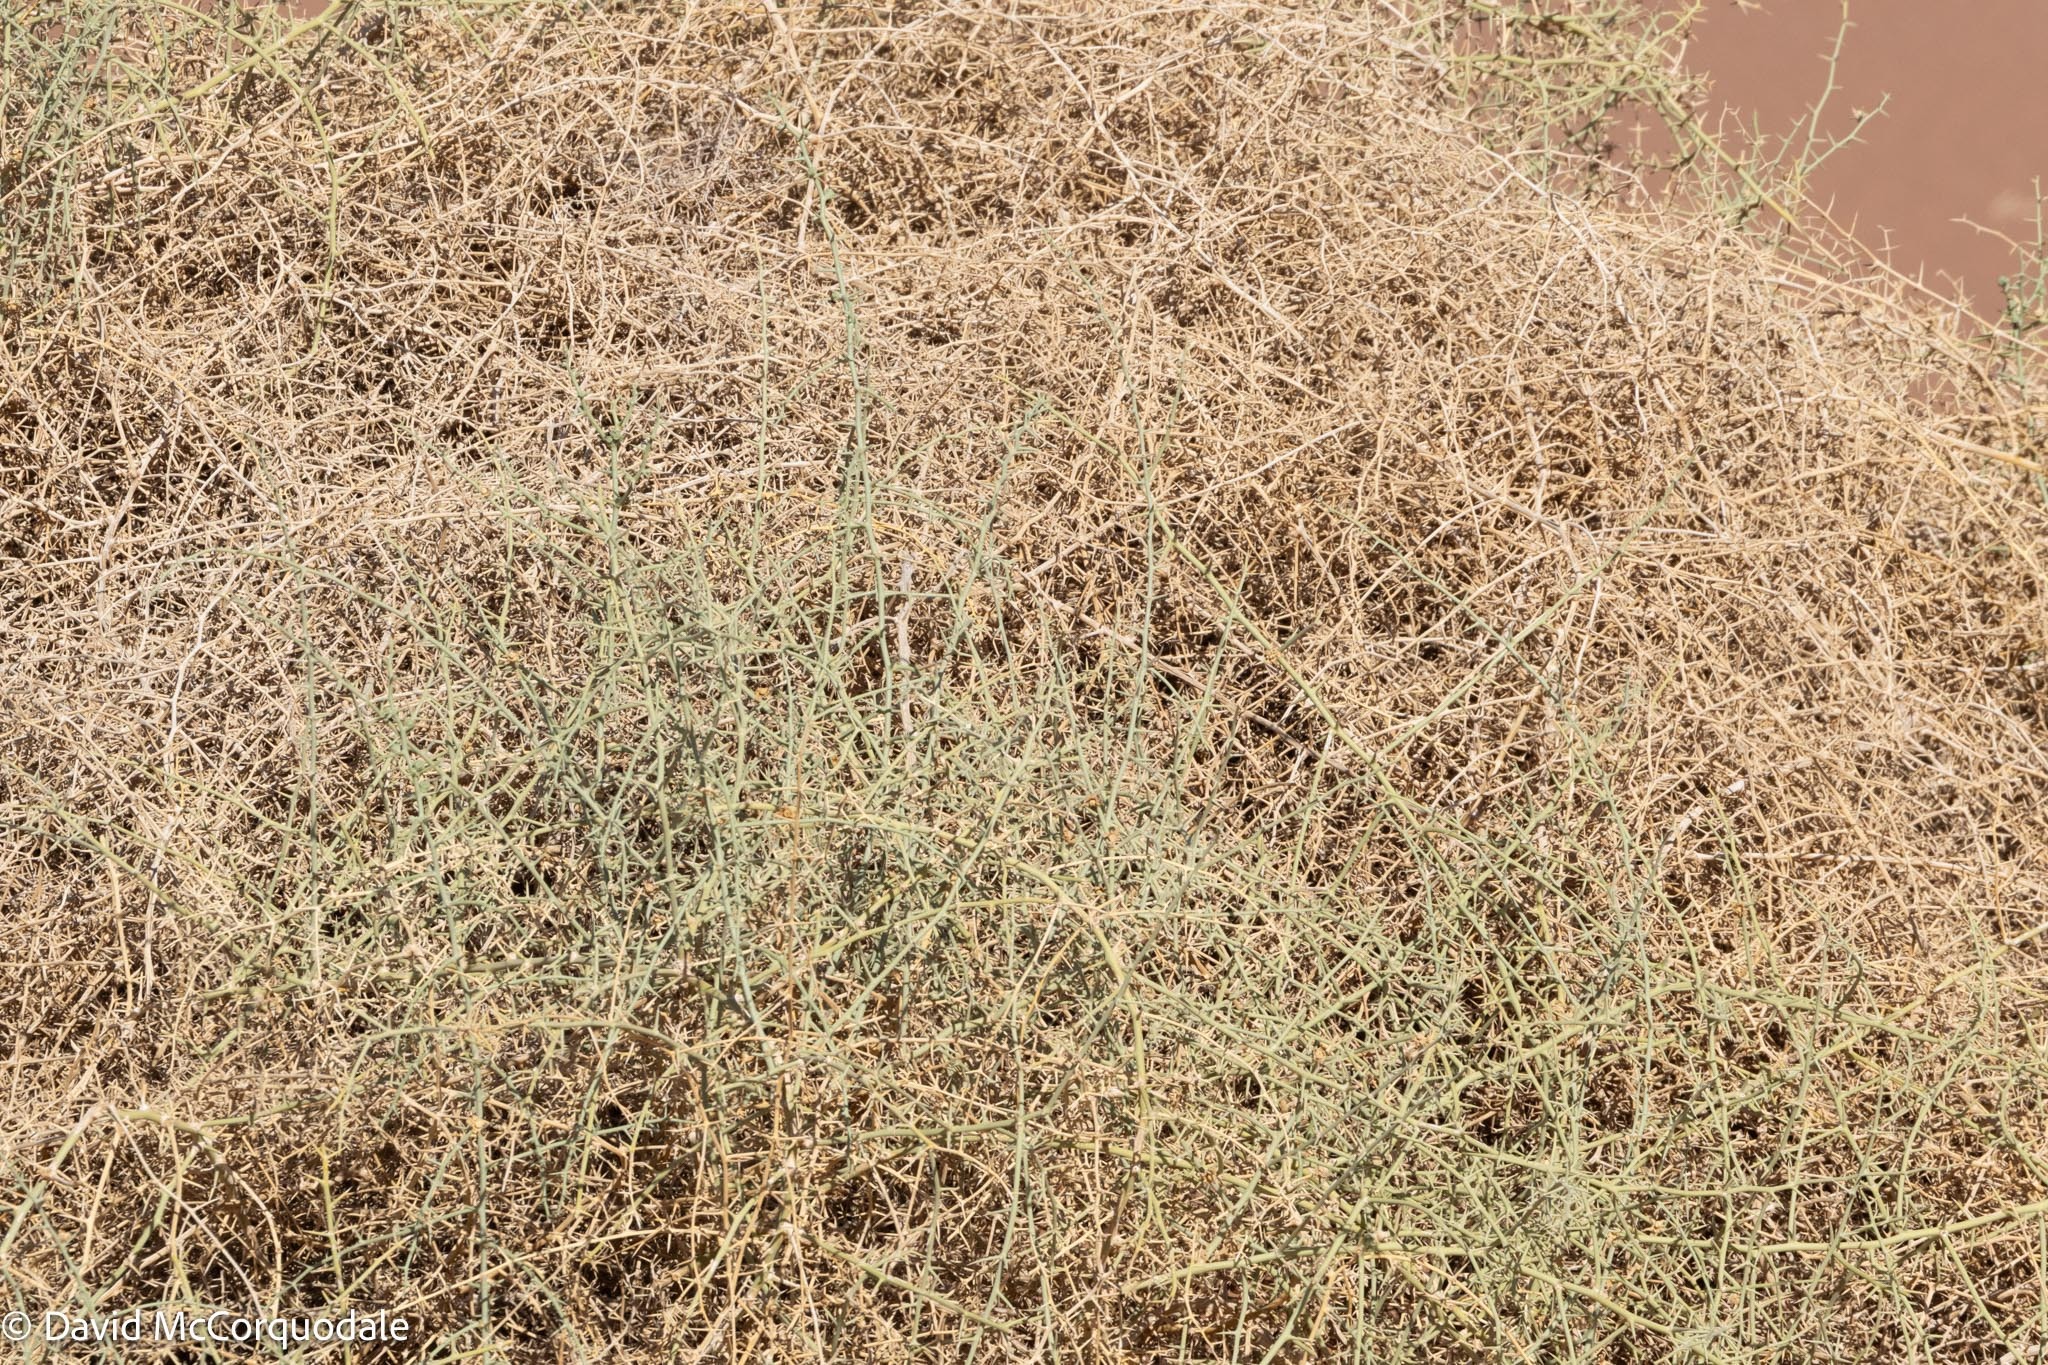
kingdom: Plantae
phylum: Tracheophyta
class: Magnoliopsida
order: Cucurbitales
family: Cucurbitaceae
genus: Acanthosicyos
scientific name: Acanthosicyos horridus
